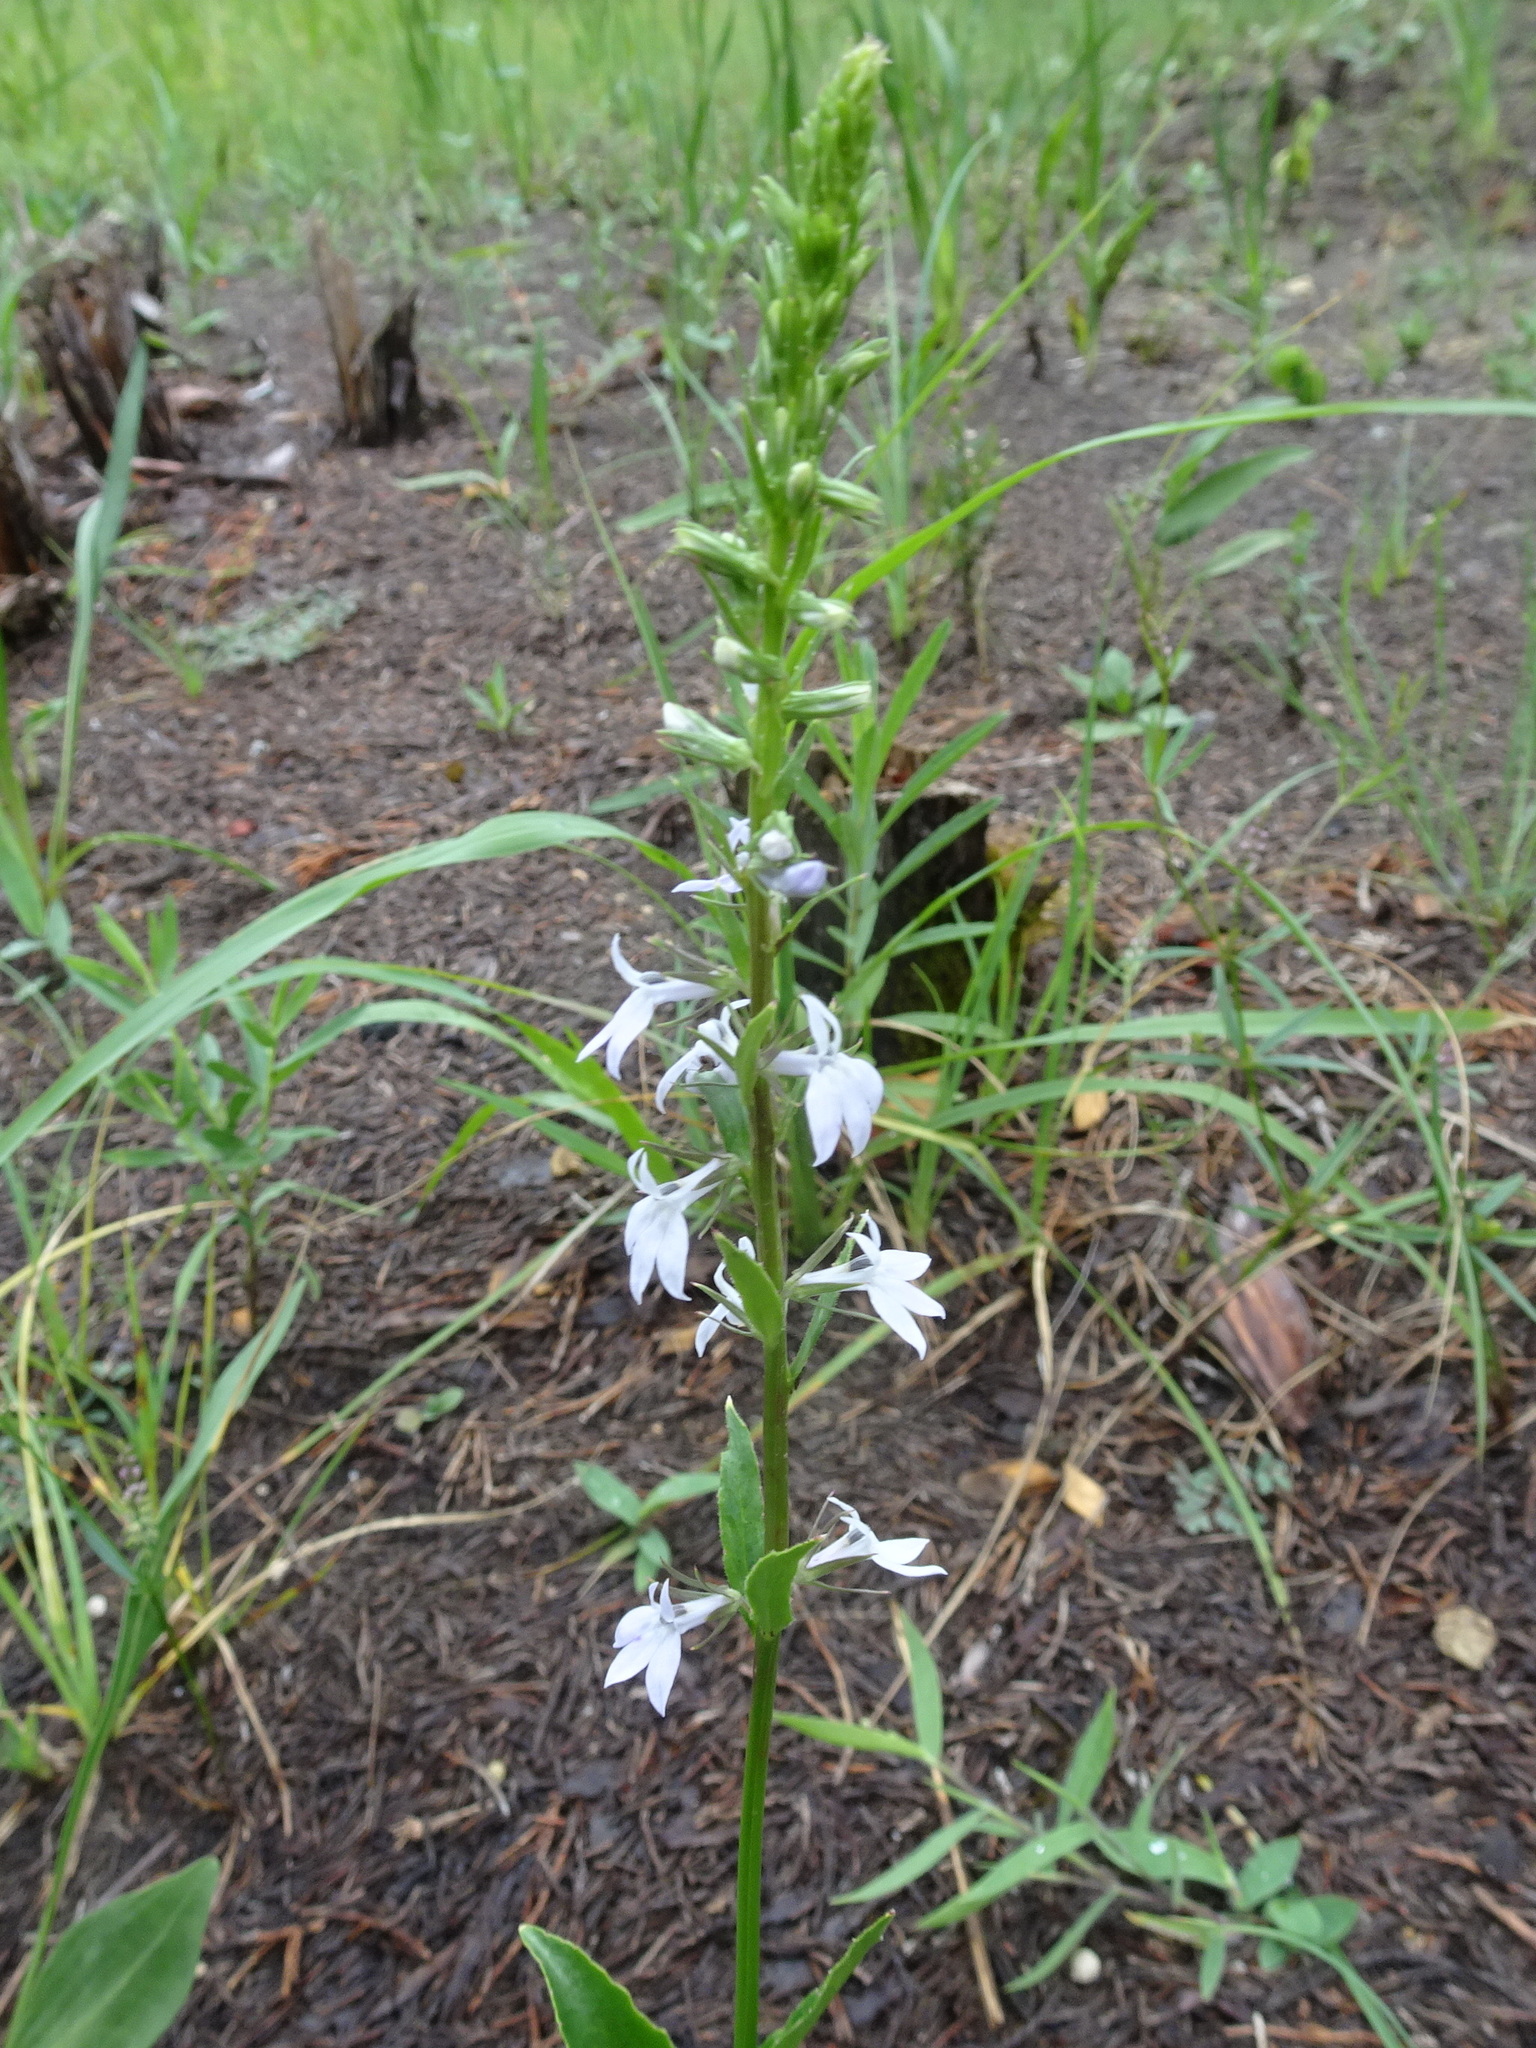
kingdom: Plantae
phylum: Tracheophyta
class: Magnoliopsida
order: Asterales
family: Campanulaceae
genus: Lobelia
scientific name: Lobelia spicata
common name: Pale-spike lobelia
